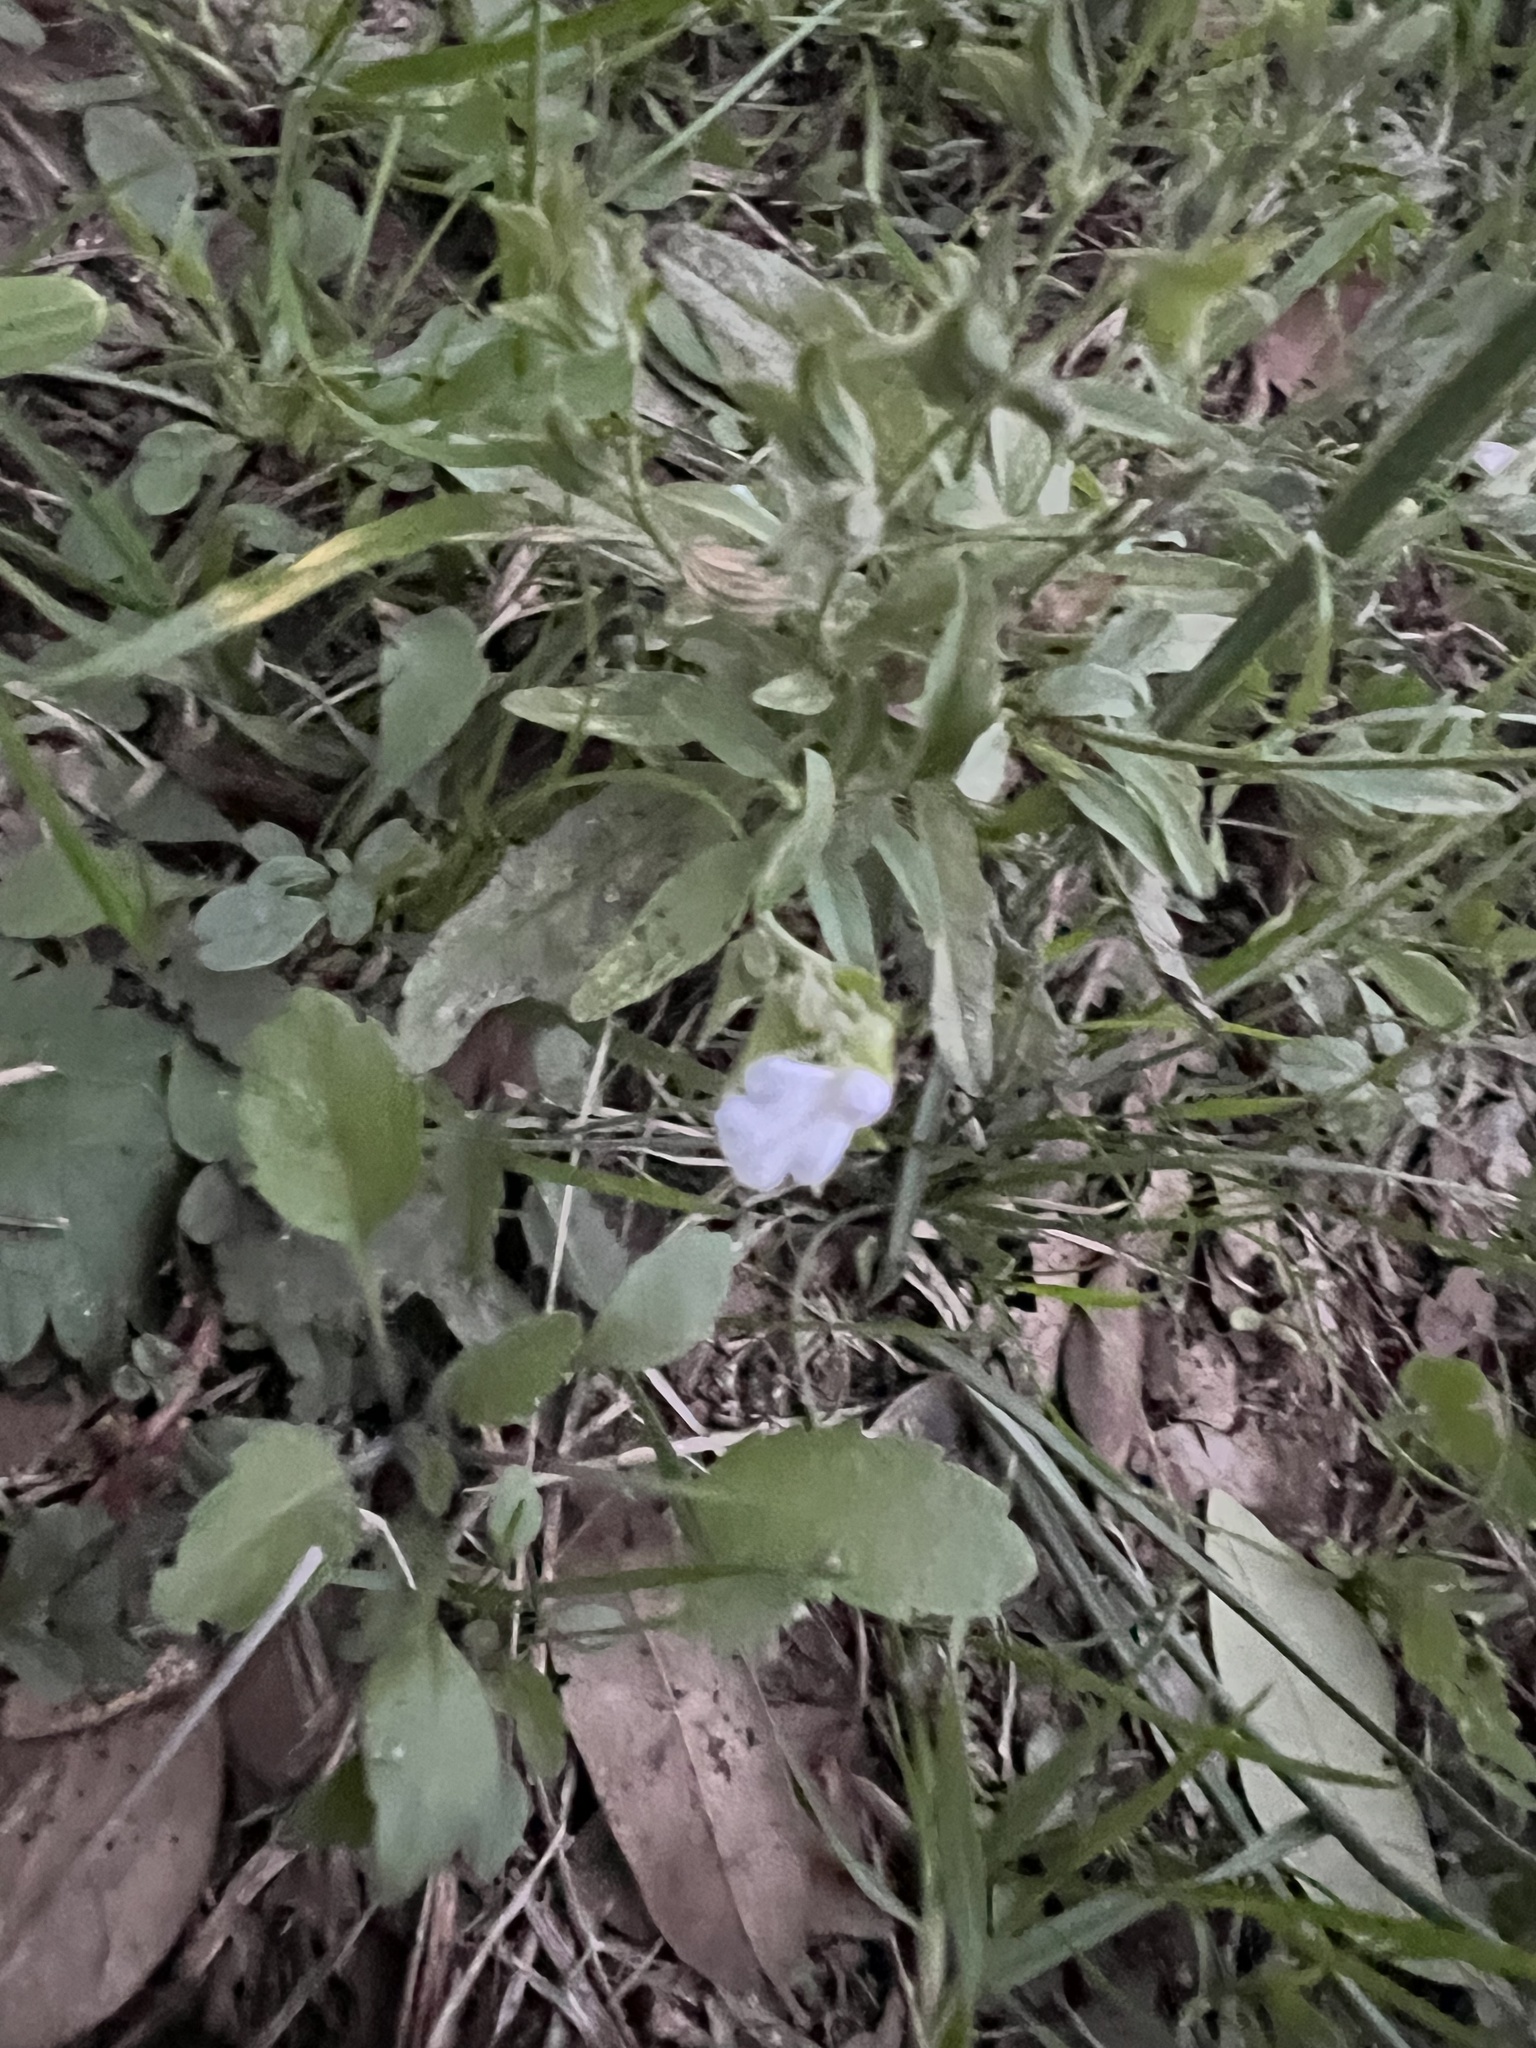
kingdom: Plantae
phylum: Tracheophyta
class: Magnoliopsida
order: Lamiales
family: Lamiaceae
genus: Salvia
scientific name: Salvia reflexa
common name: Mintweed
